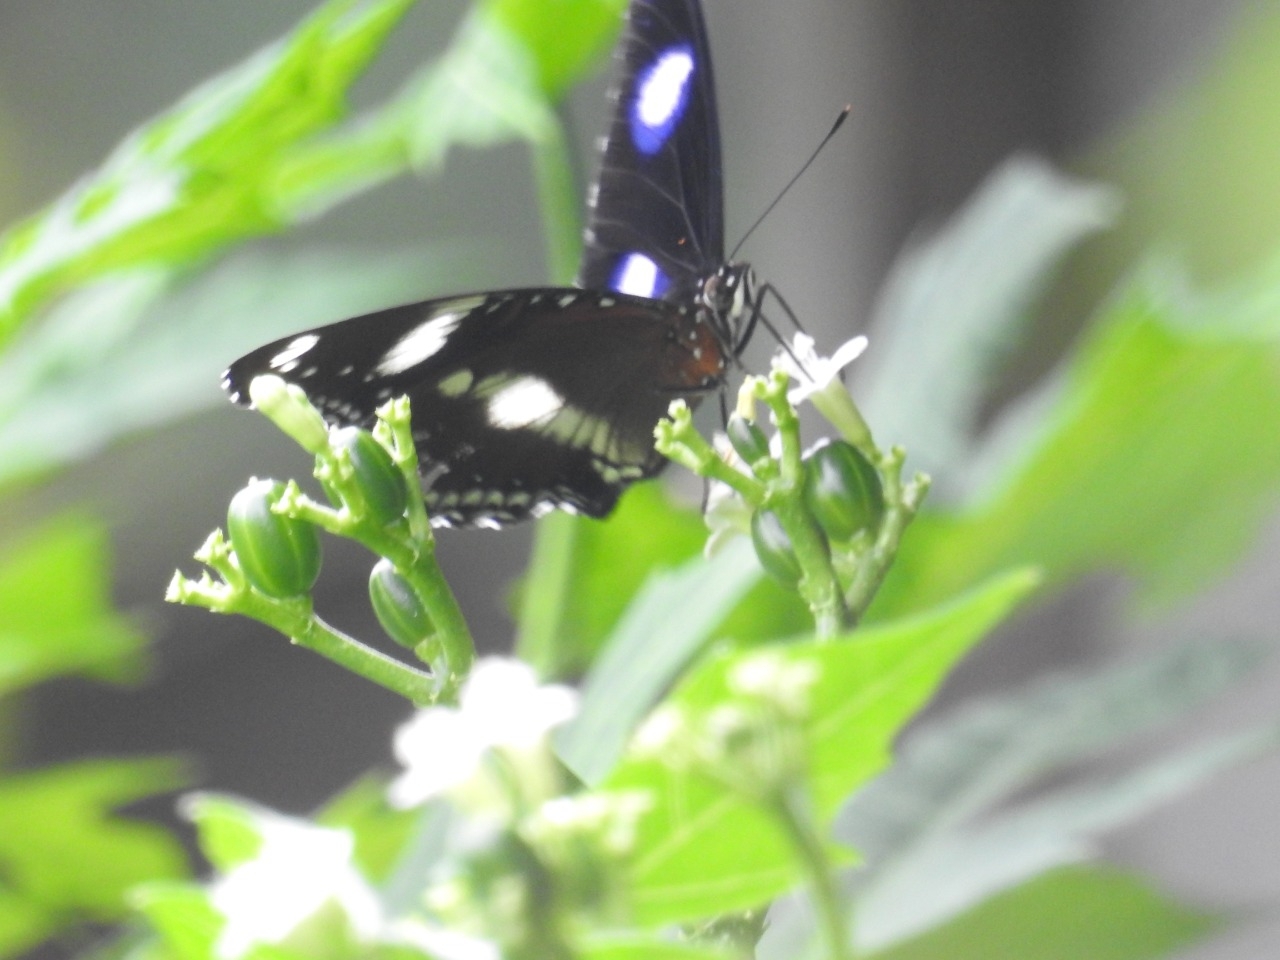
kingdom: Animalia
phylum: Arthropoda
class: Insecta
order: Lepidoptera
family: Nymphalidae
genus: Hypolimnas
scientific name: Hypolimnas bolina
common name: Great eggfly
